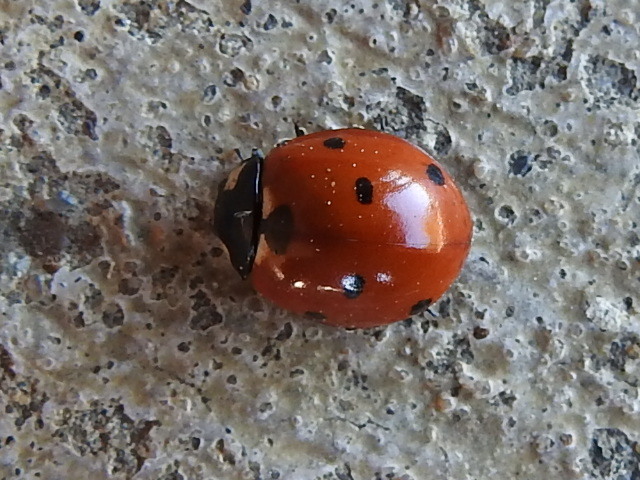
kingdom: Animalia
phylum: Arthropoda
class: Insecta
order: Coleoptera
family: Coccinellidae
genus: Coccinella
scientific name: Coccinella septempunctata
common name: Sevenspotted lady beetle
